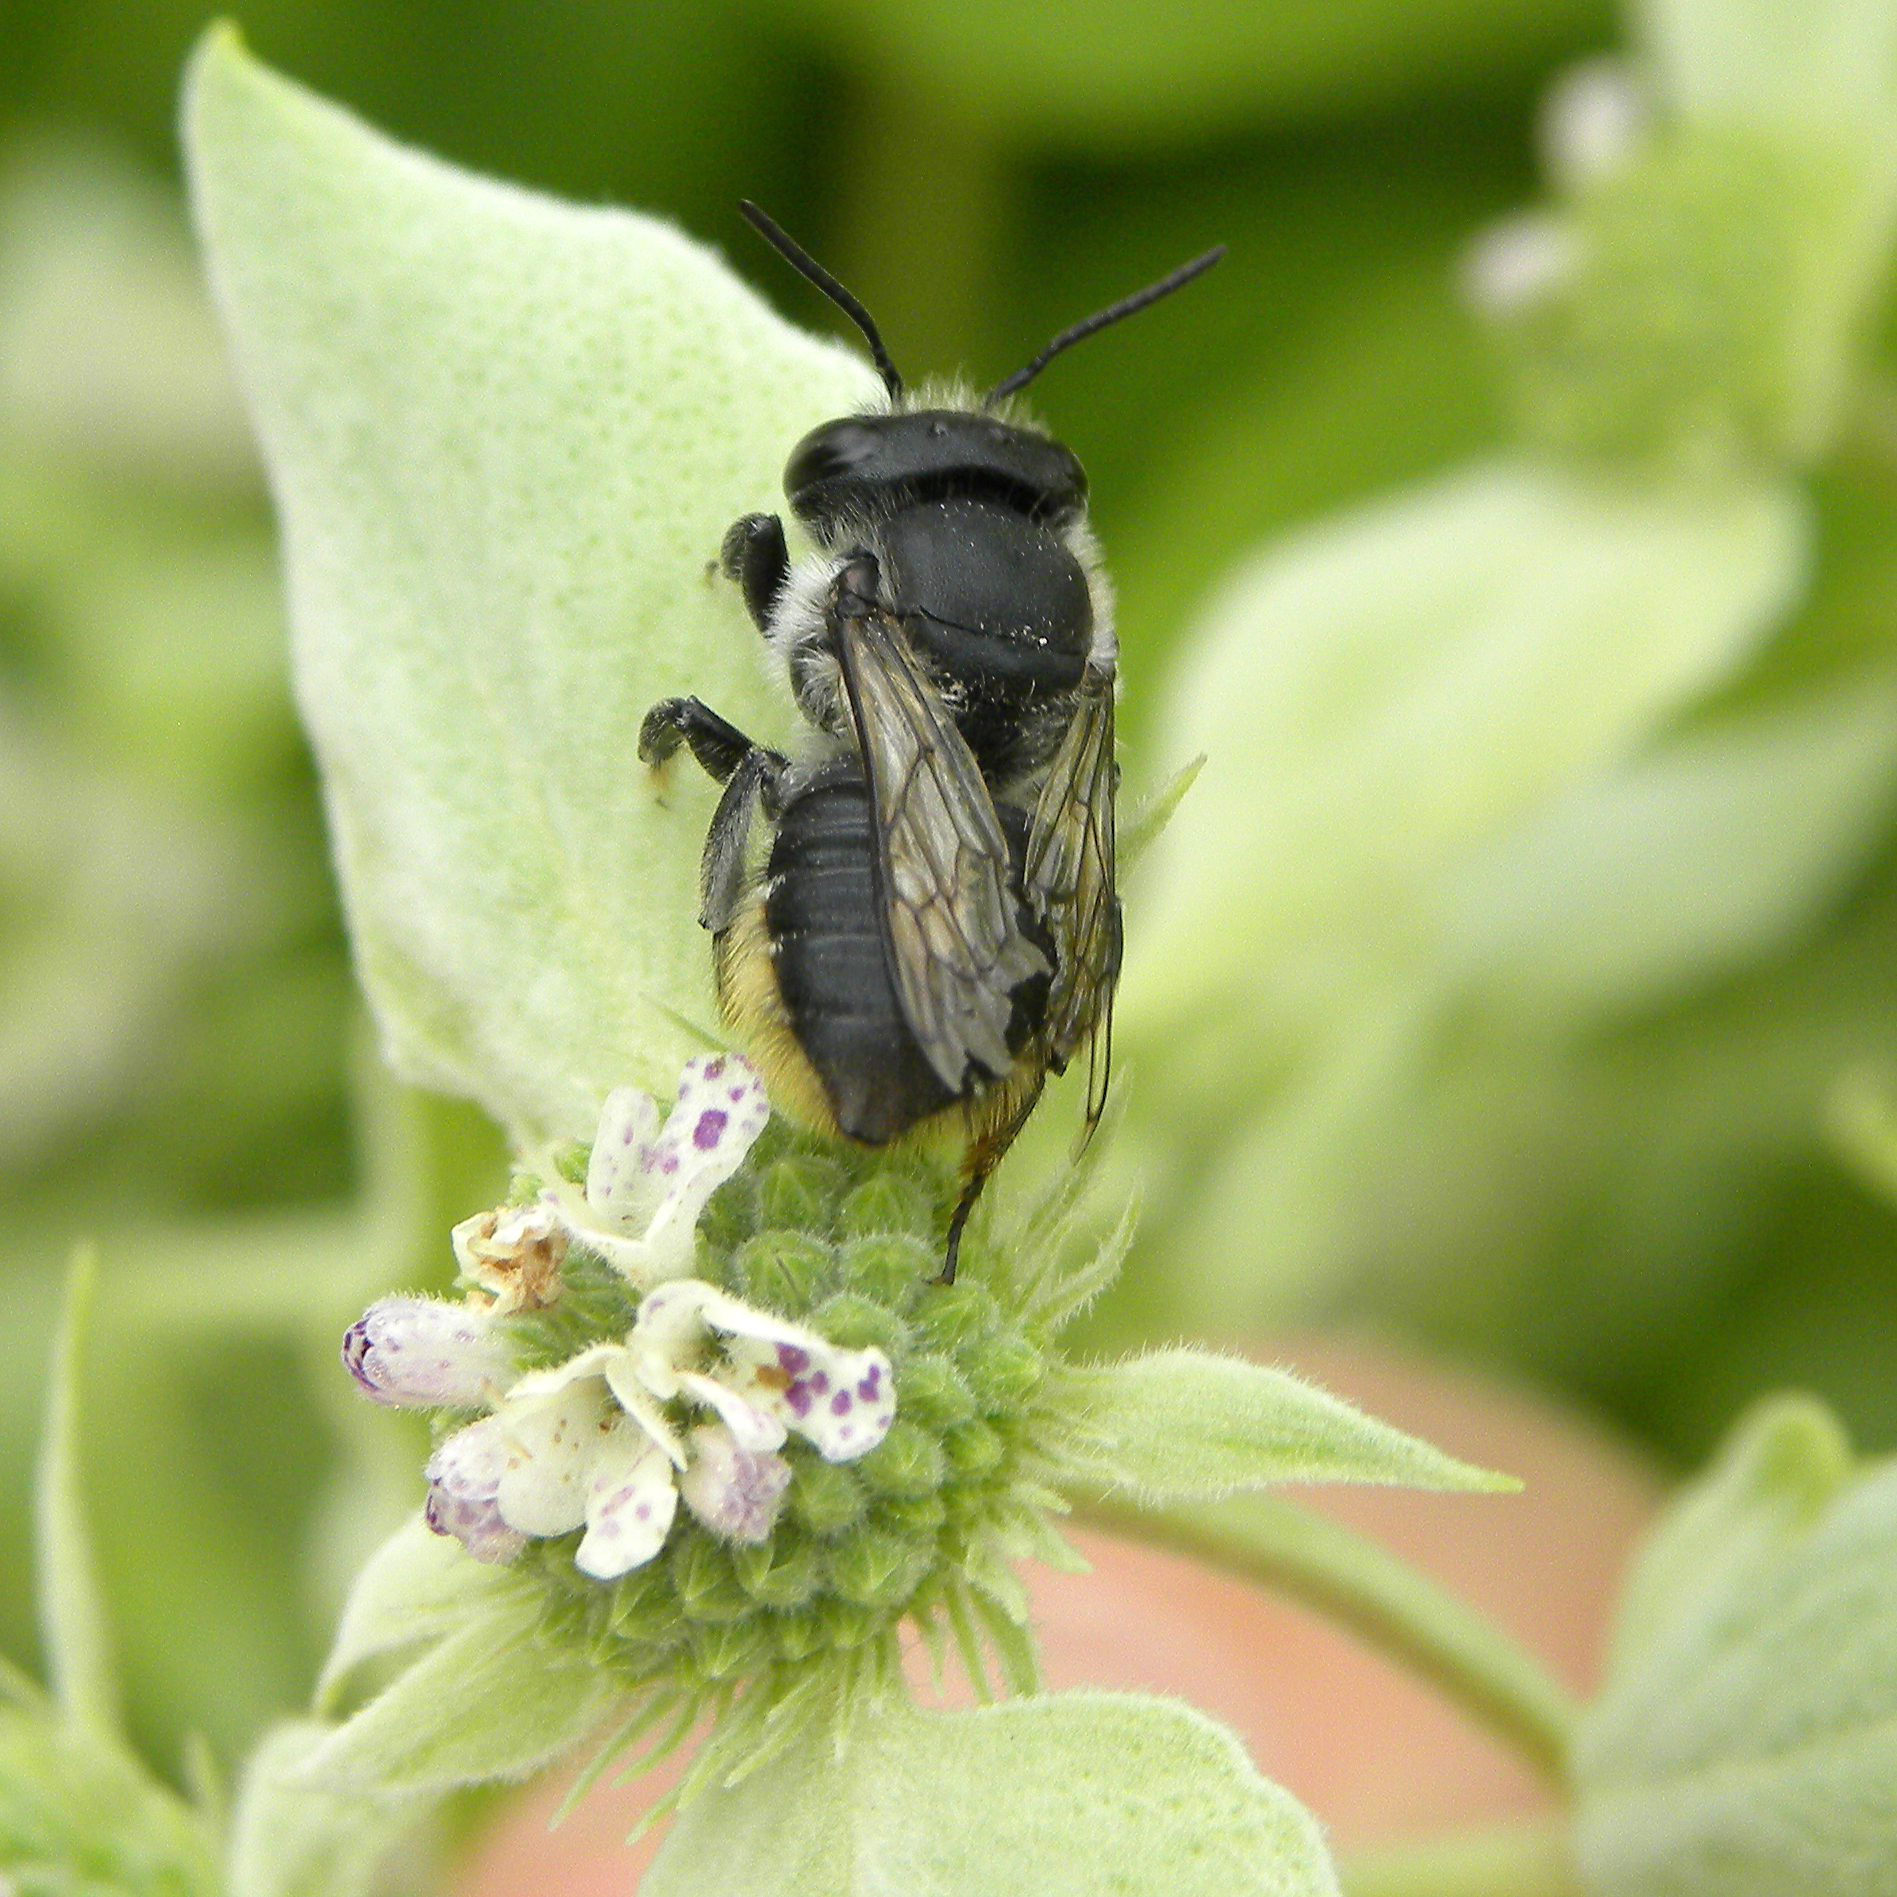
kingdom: Animalia
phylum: Arthropoda
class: Insecta
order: Hymenoptera
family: Megachilidae
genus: Megachile
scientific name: Megachile
